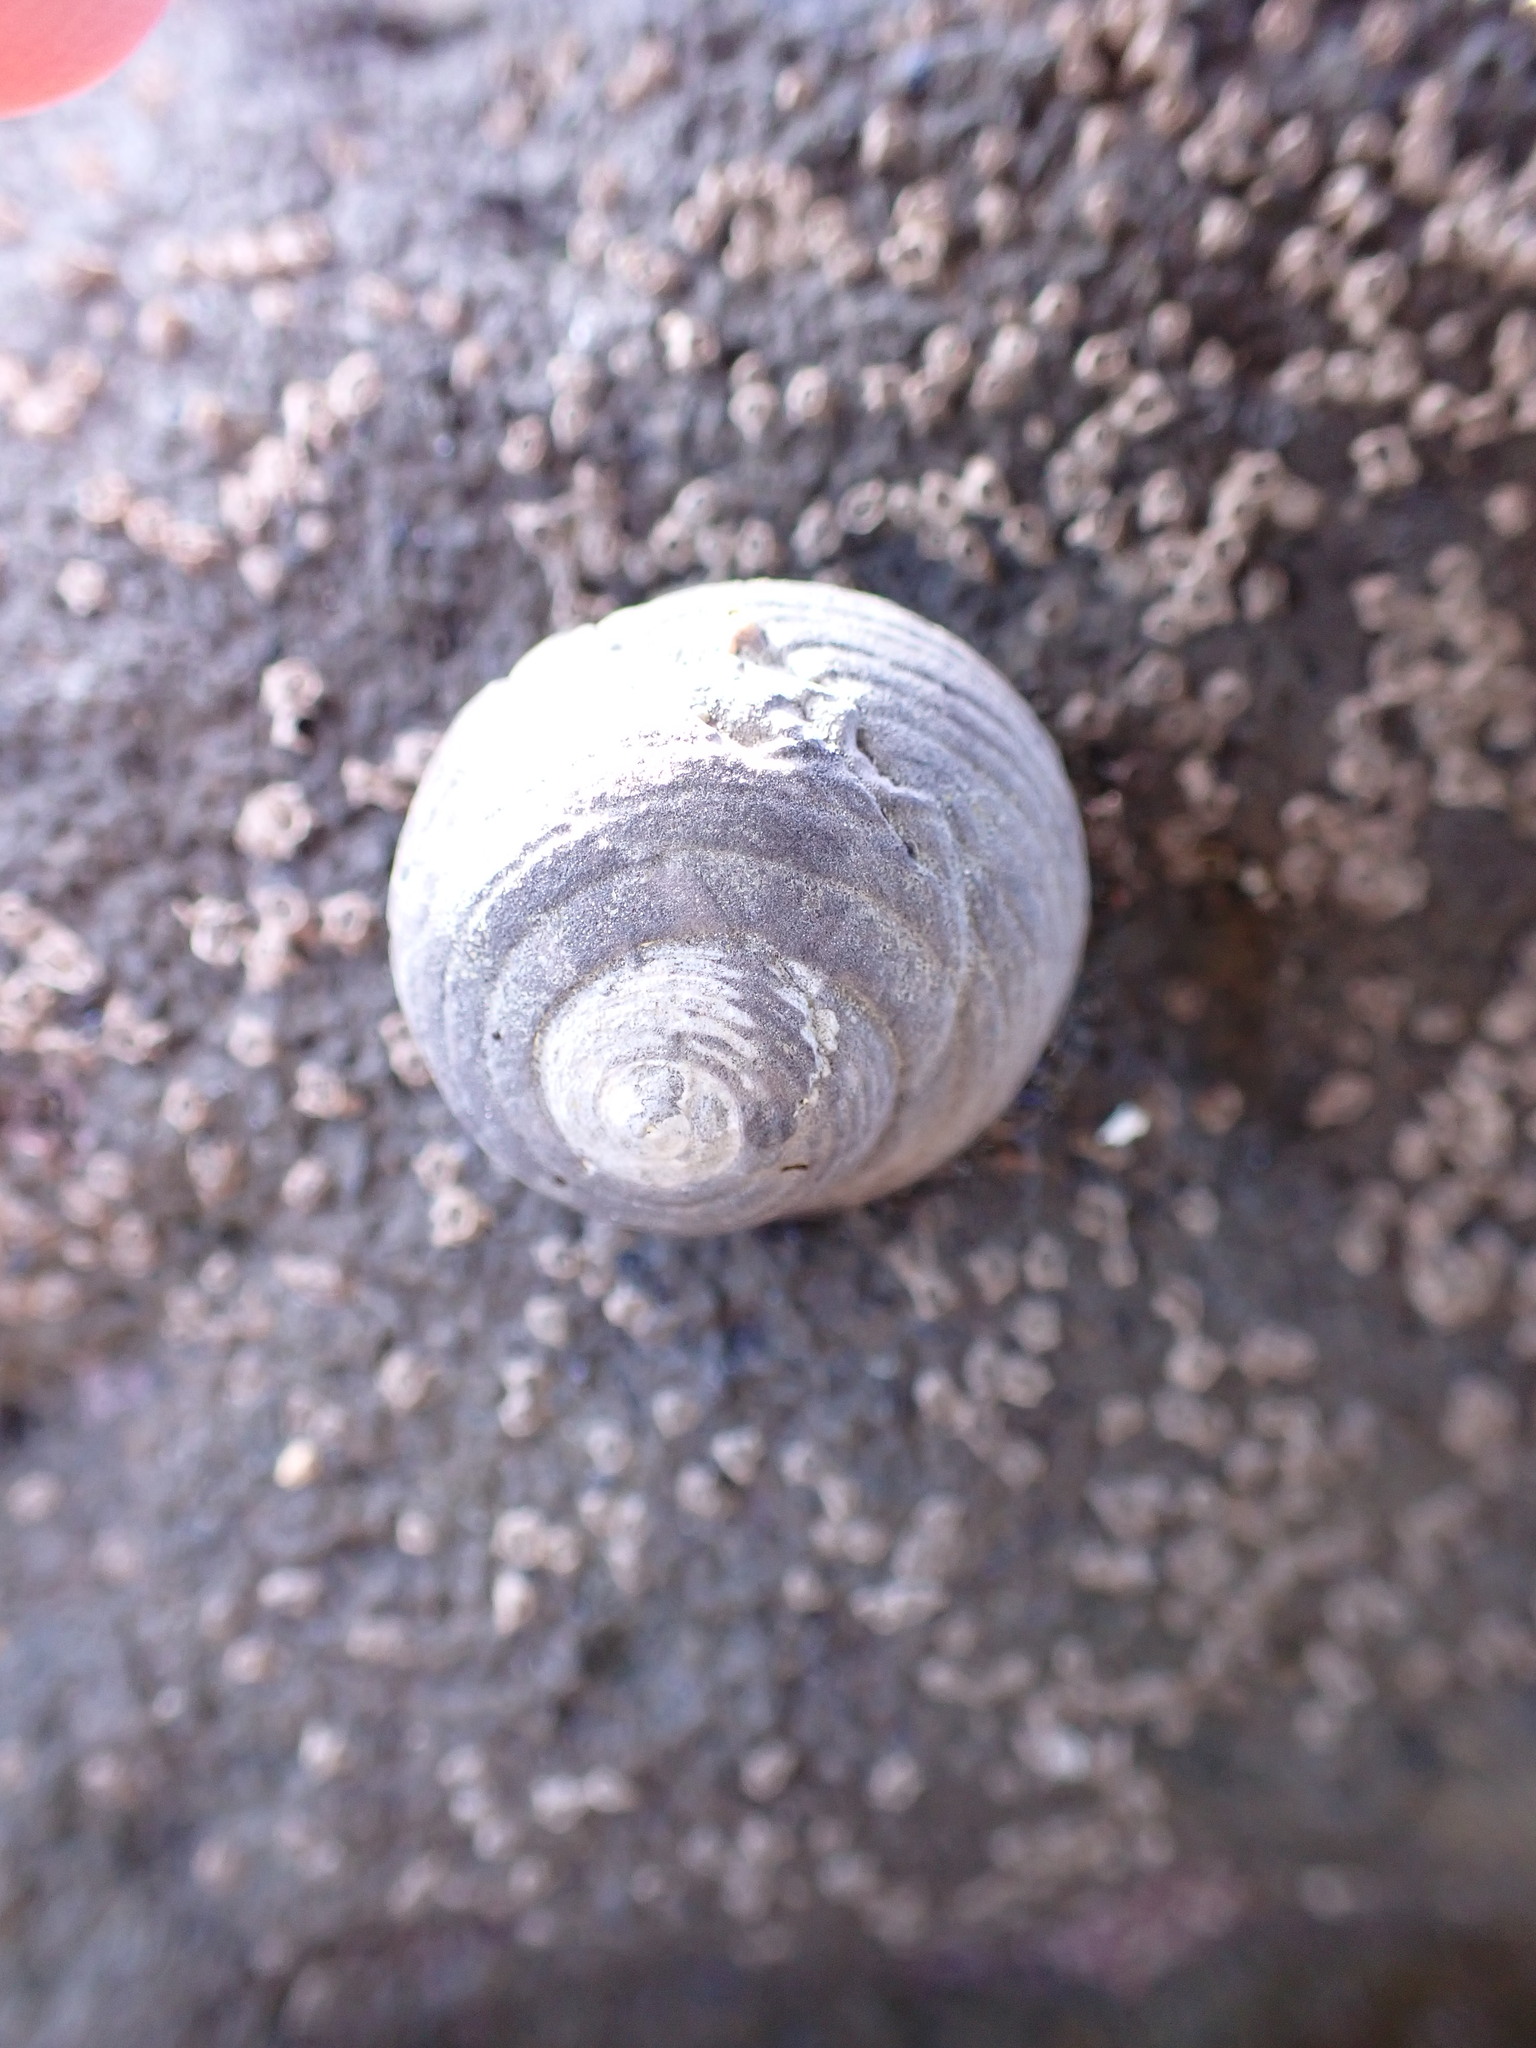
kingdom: Animalia
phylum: Mollusca
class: Gastropoda
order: Trochida
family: Trochidae
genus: Diloma
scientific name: Diloma zelandicum
